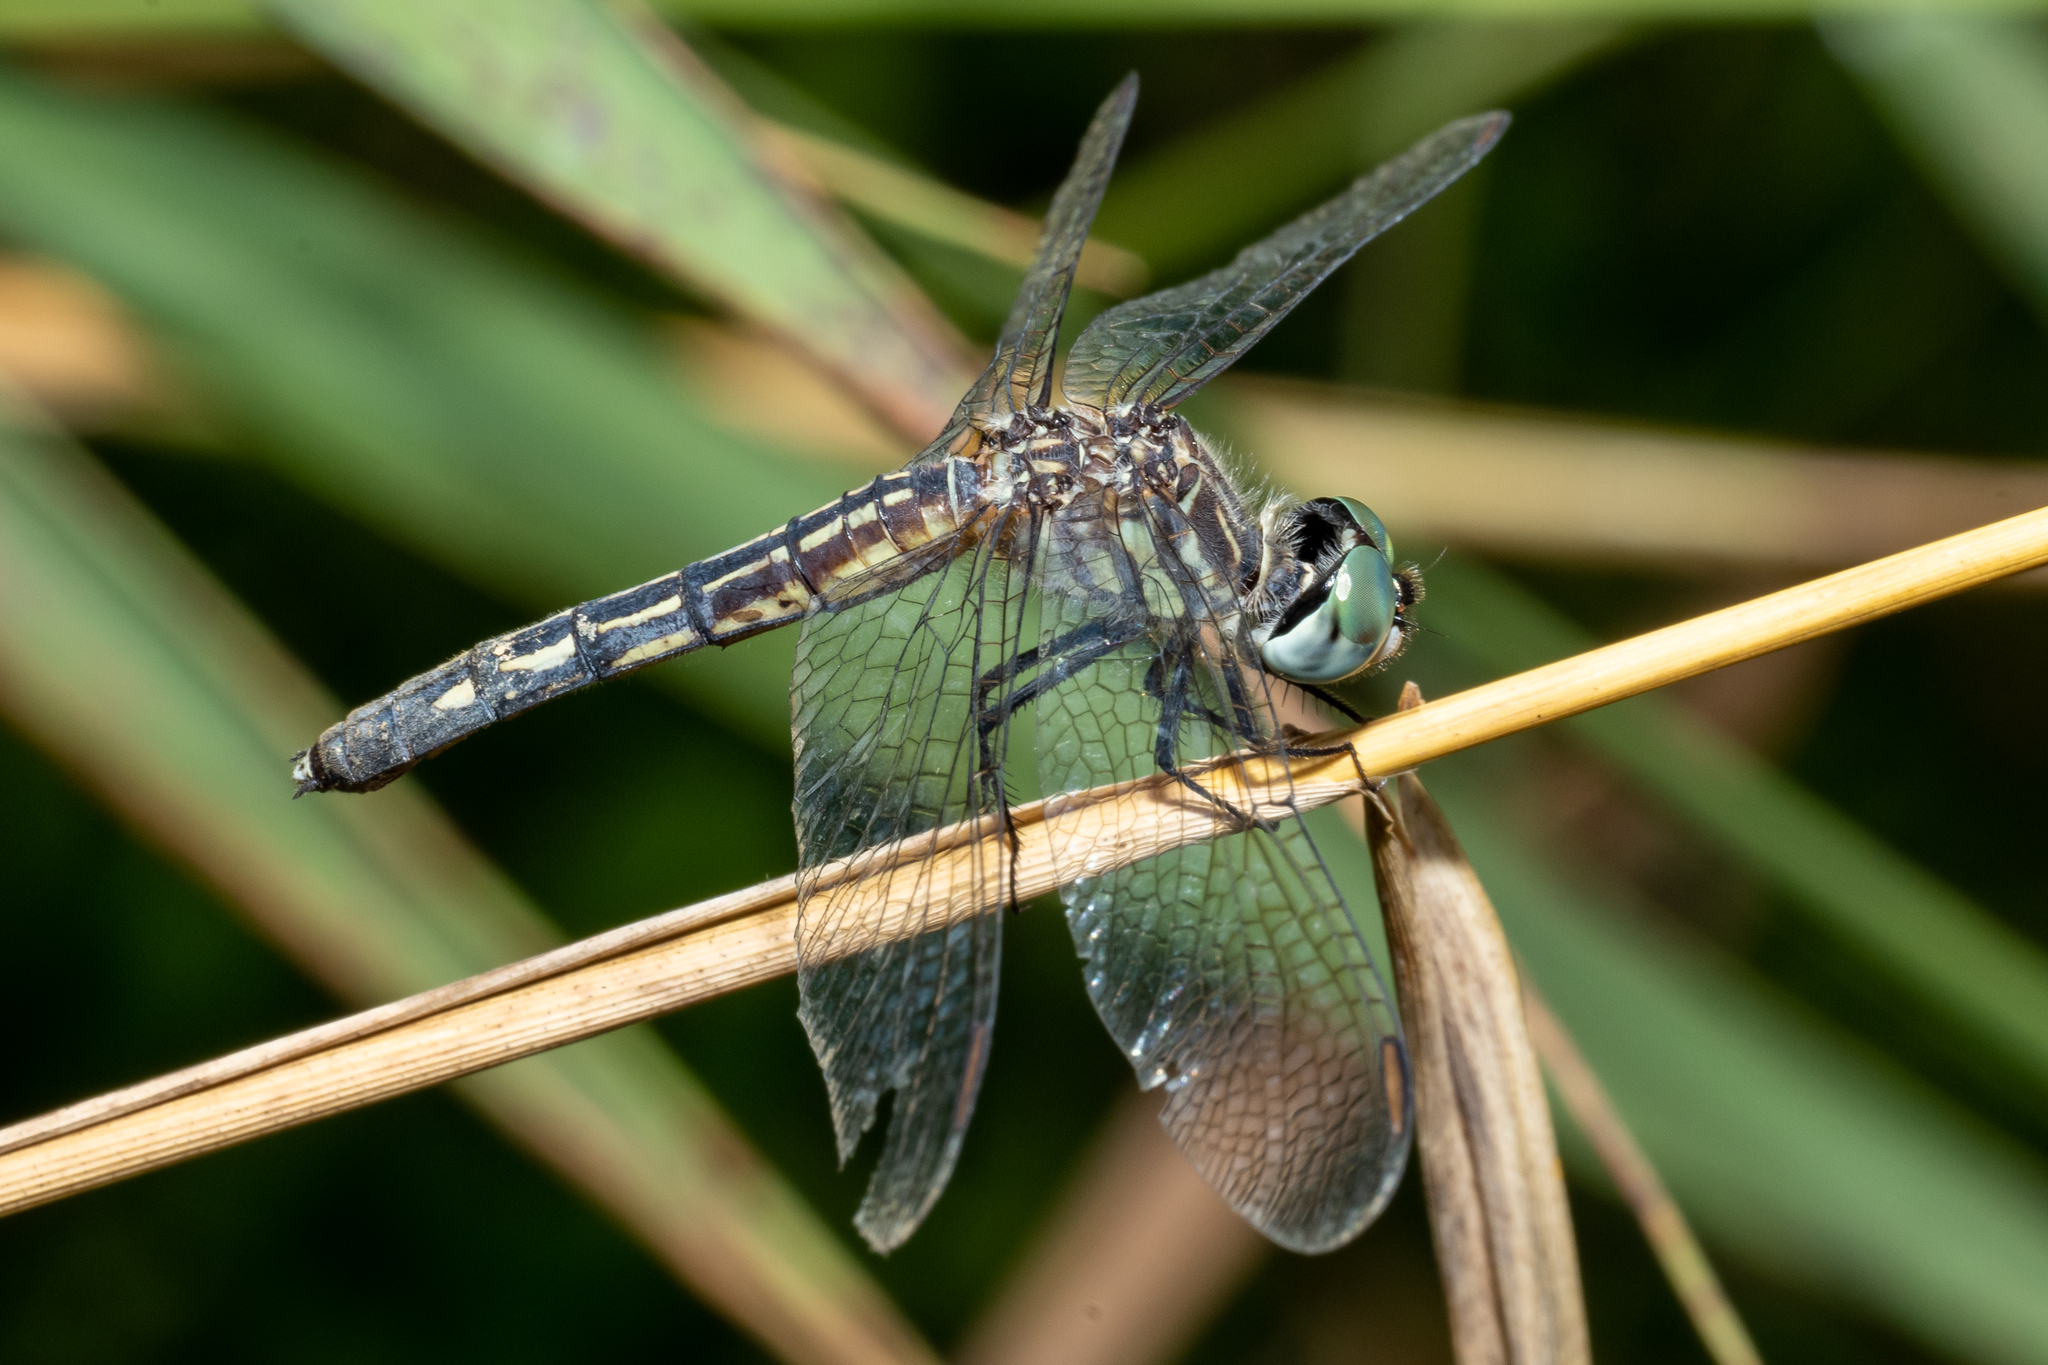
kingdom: Animalia
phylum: Arthropoda
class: Insecta
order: Odonata
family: Libellulidae
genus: Pachydiplax
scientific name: Pachydiplax longipennis
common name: Blue dasher
